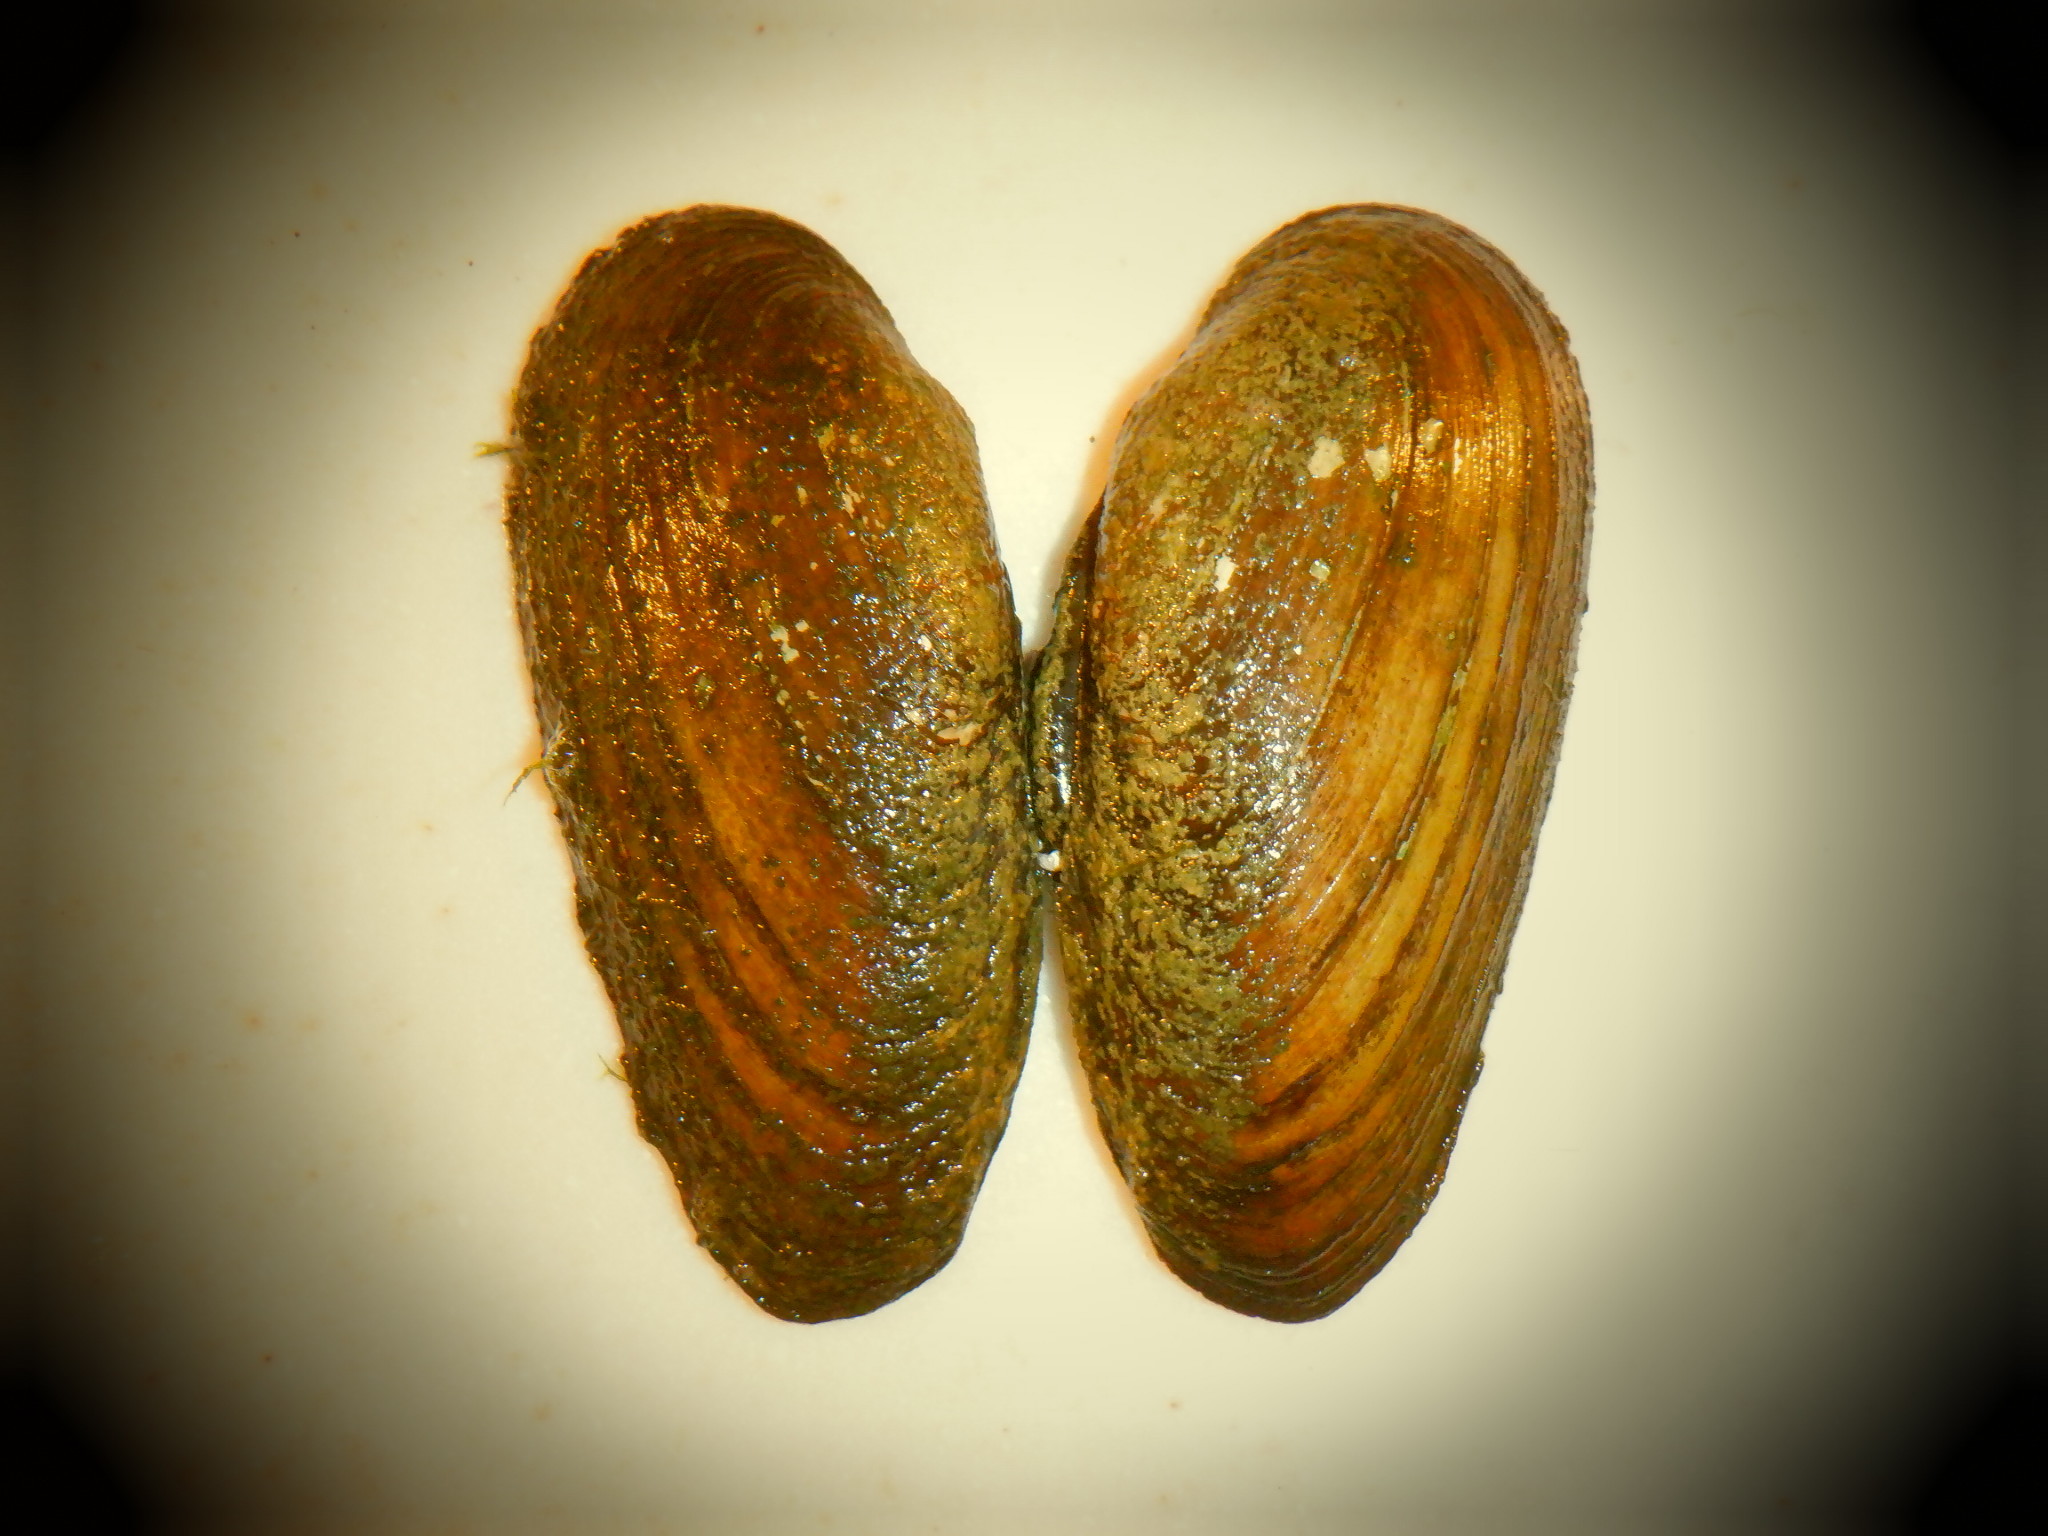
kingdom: Animalia
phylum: Mollusca
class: Bivalvia
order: Unionida
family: Unionidae
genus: Eurynia
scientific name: Eurynia dilatata
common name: Spike
